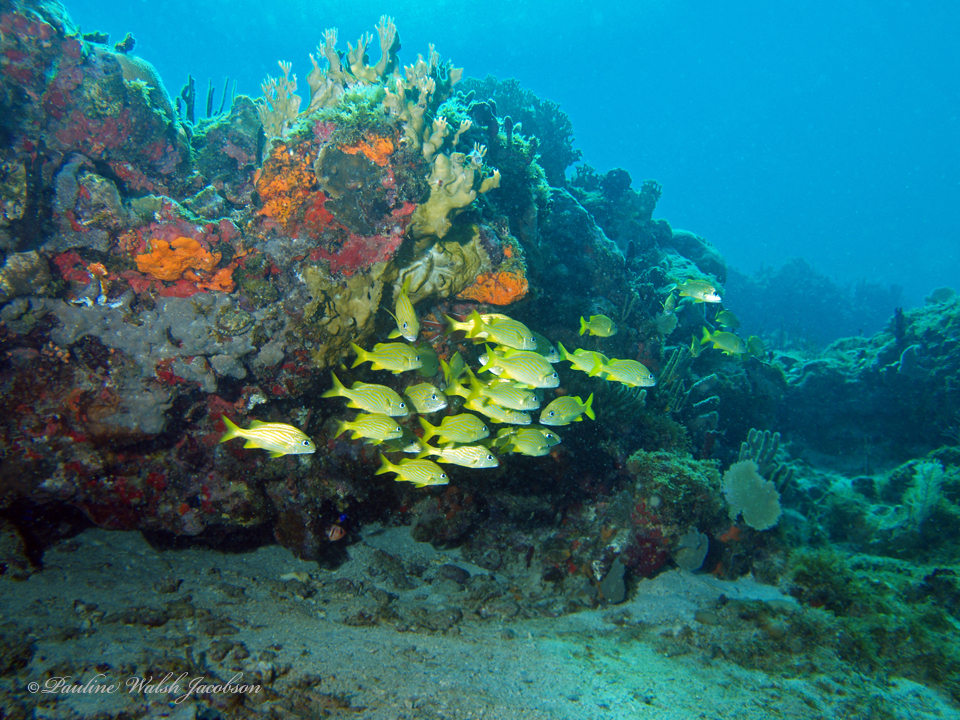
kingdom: Animalia
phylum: Chordata
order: Perciformes
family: Haemulidae
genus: Haemulon
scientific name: Haemulon flavolineatum
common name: French grunt
